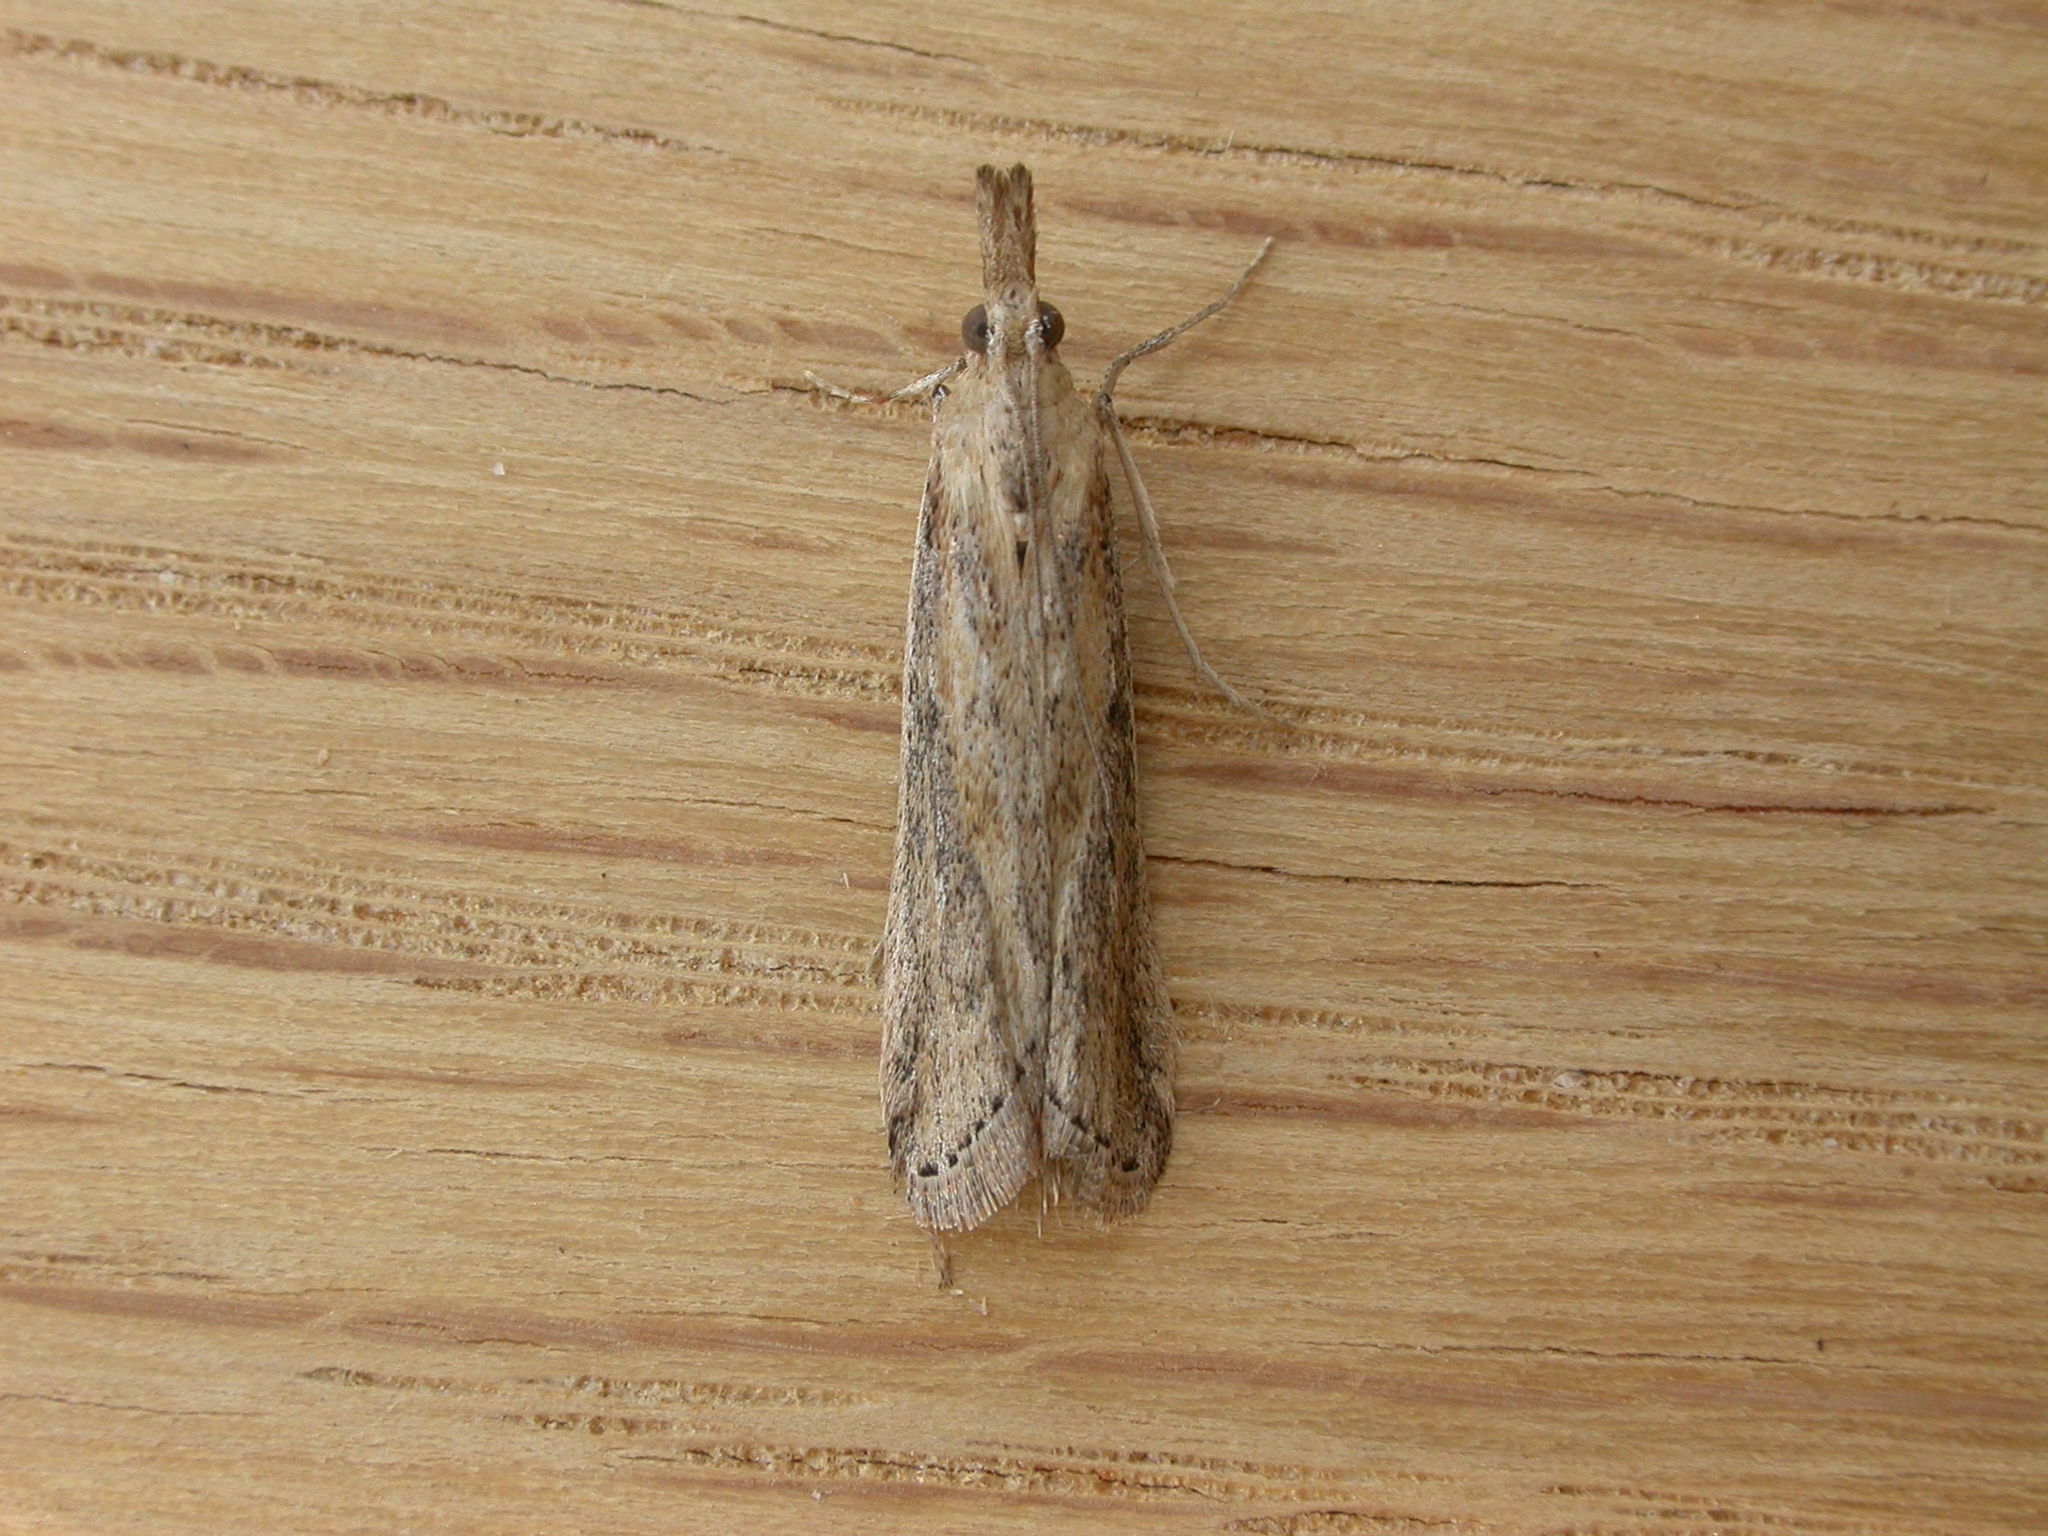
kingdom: Animalia
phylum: Arthropoda
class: Insecta
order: Lepidoptera
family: Pyralidae
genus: Faveria
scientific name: Faveria tritalis
